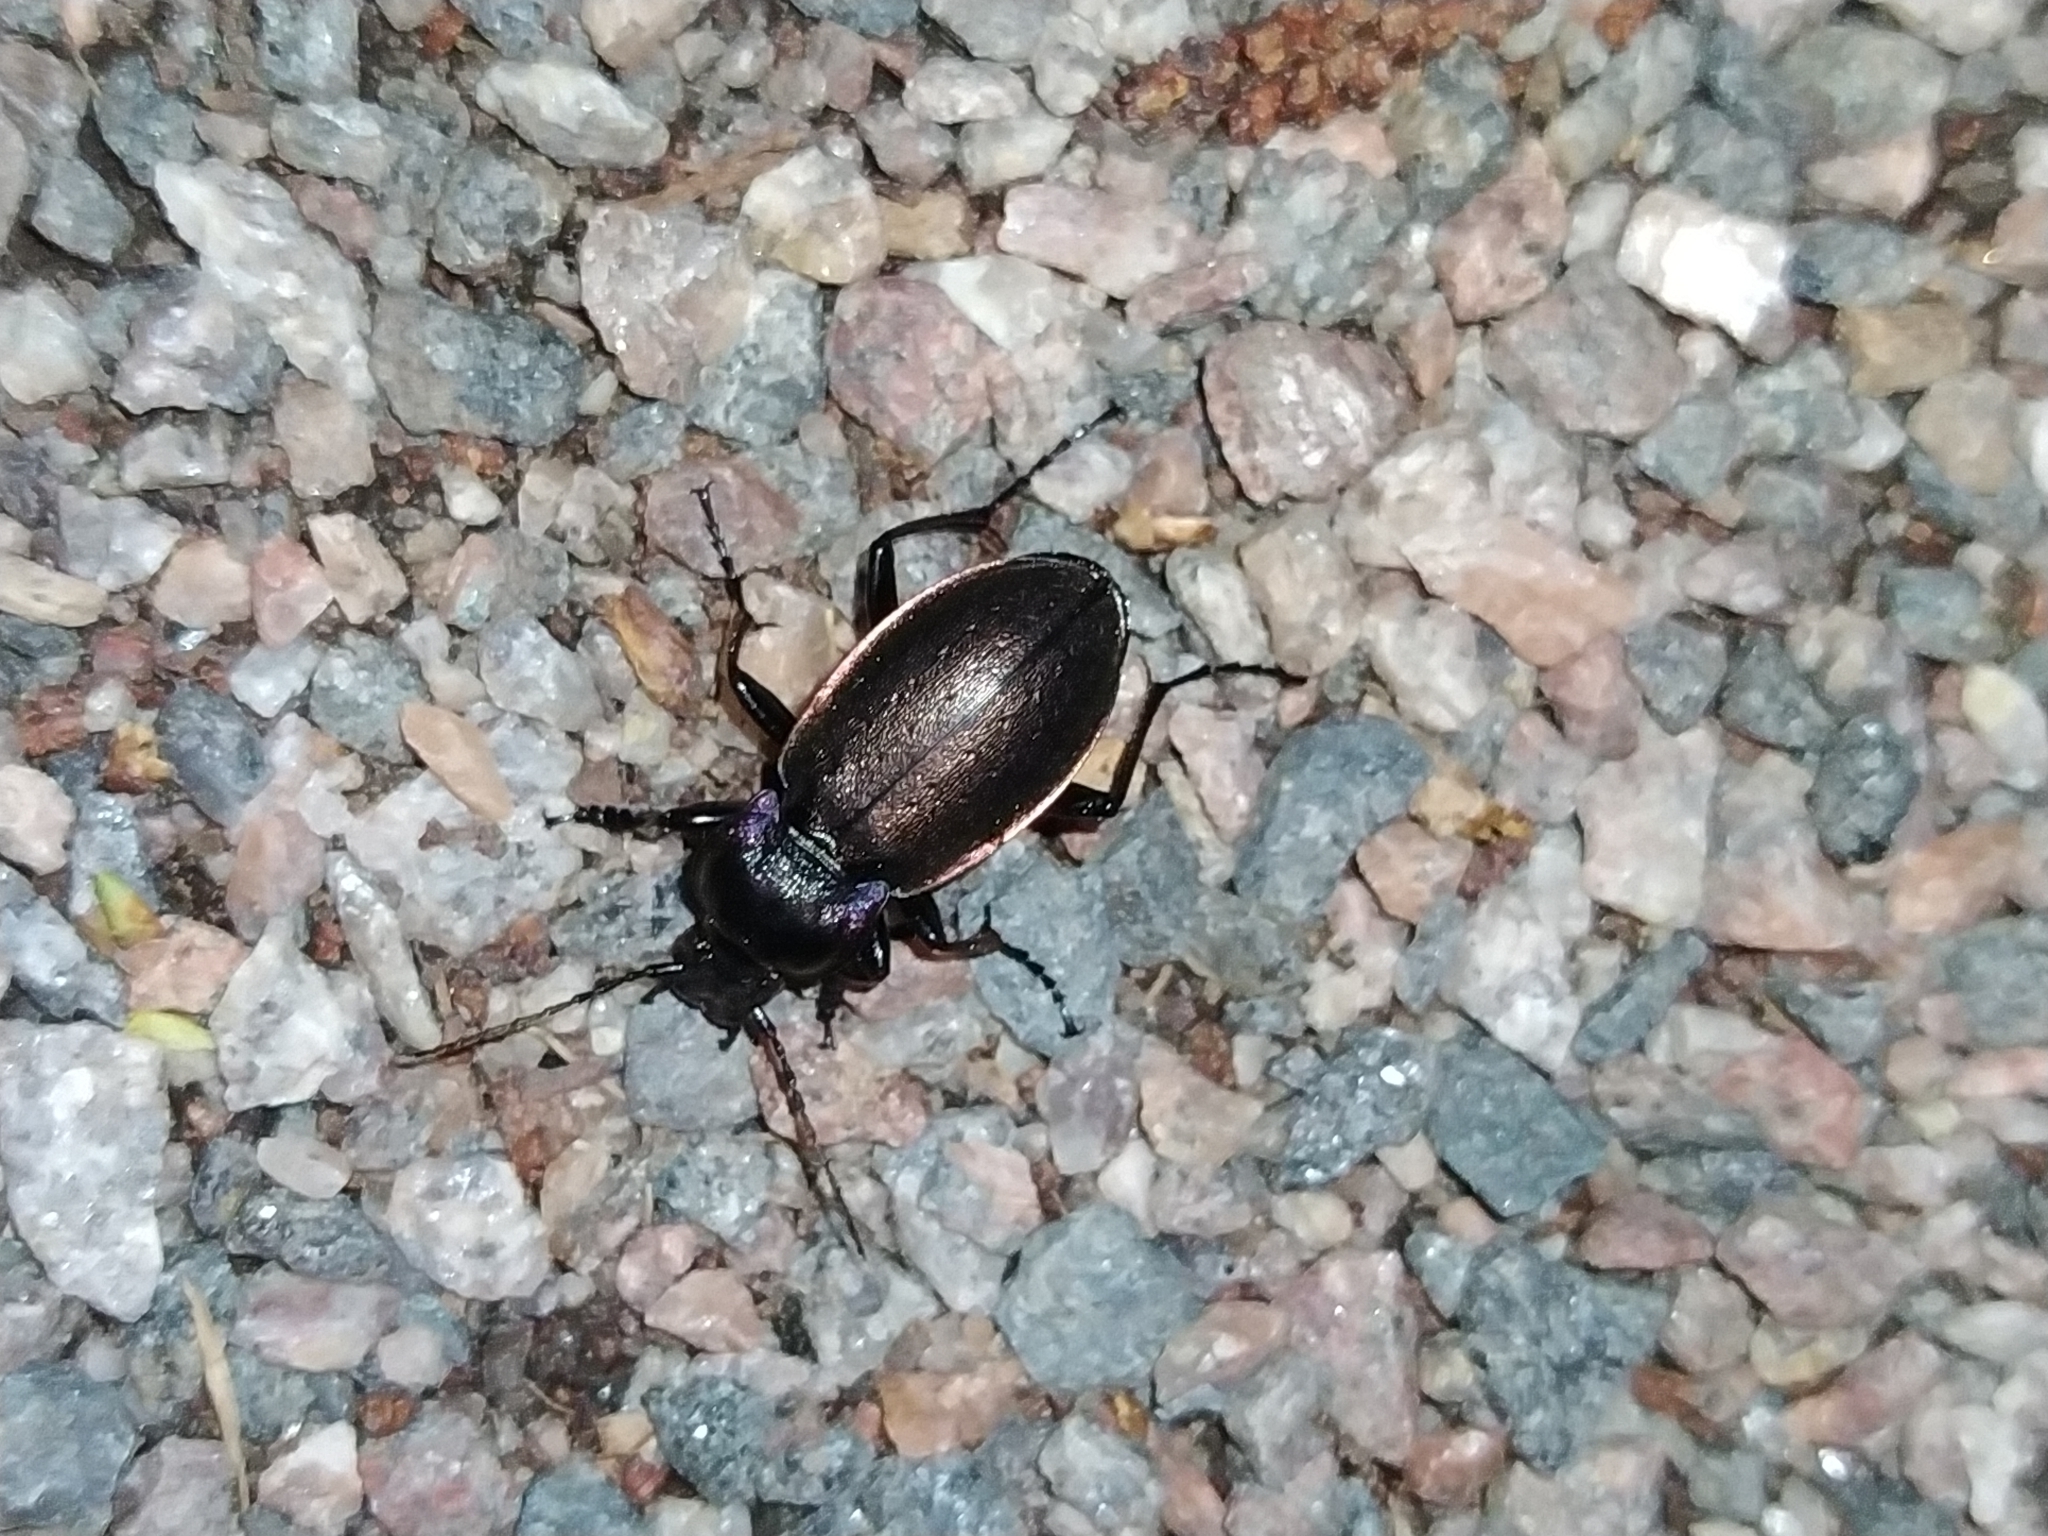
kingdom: Animalia
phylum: Arthropoda
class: Insecta
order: Coleoptera
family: Carabidae
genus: Carabus
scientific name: Carabus nemoralis
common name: European ground beetle
